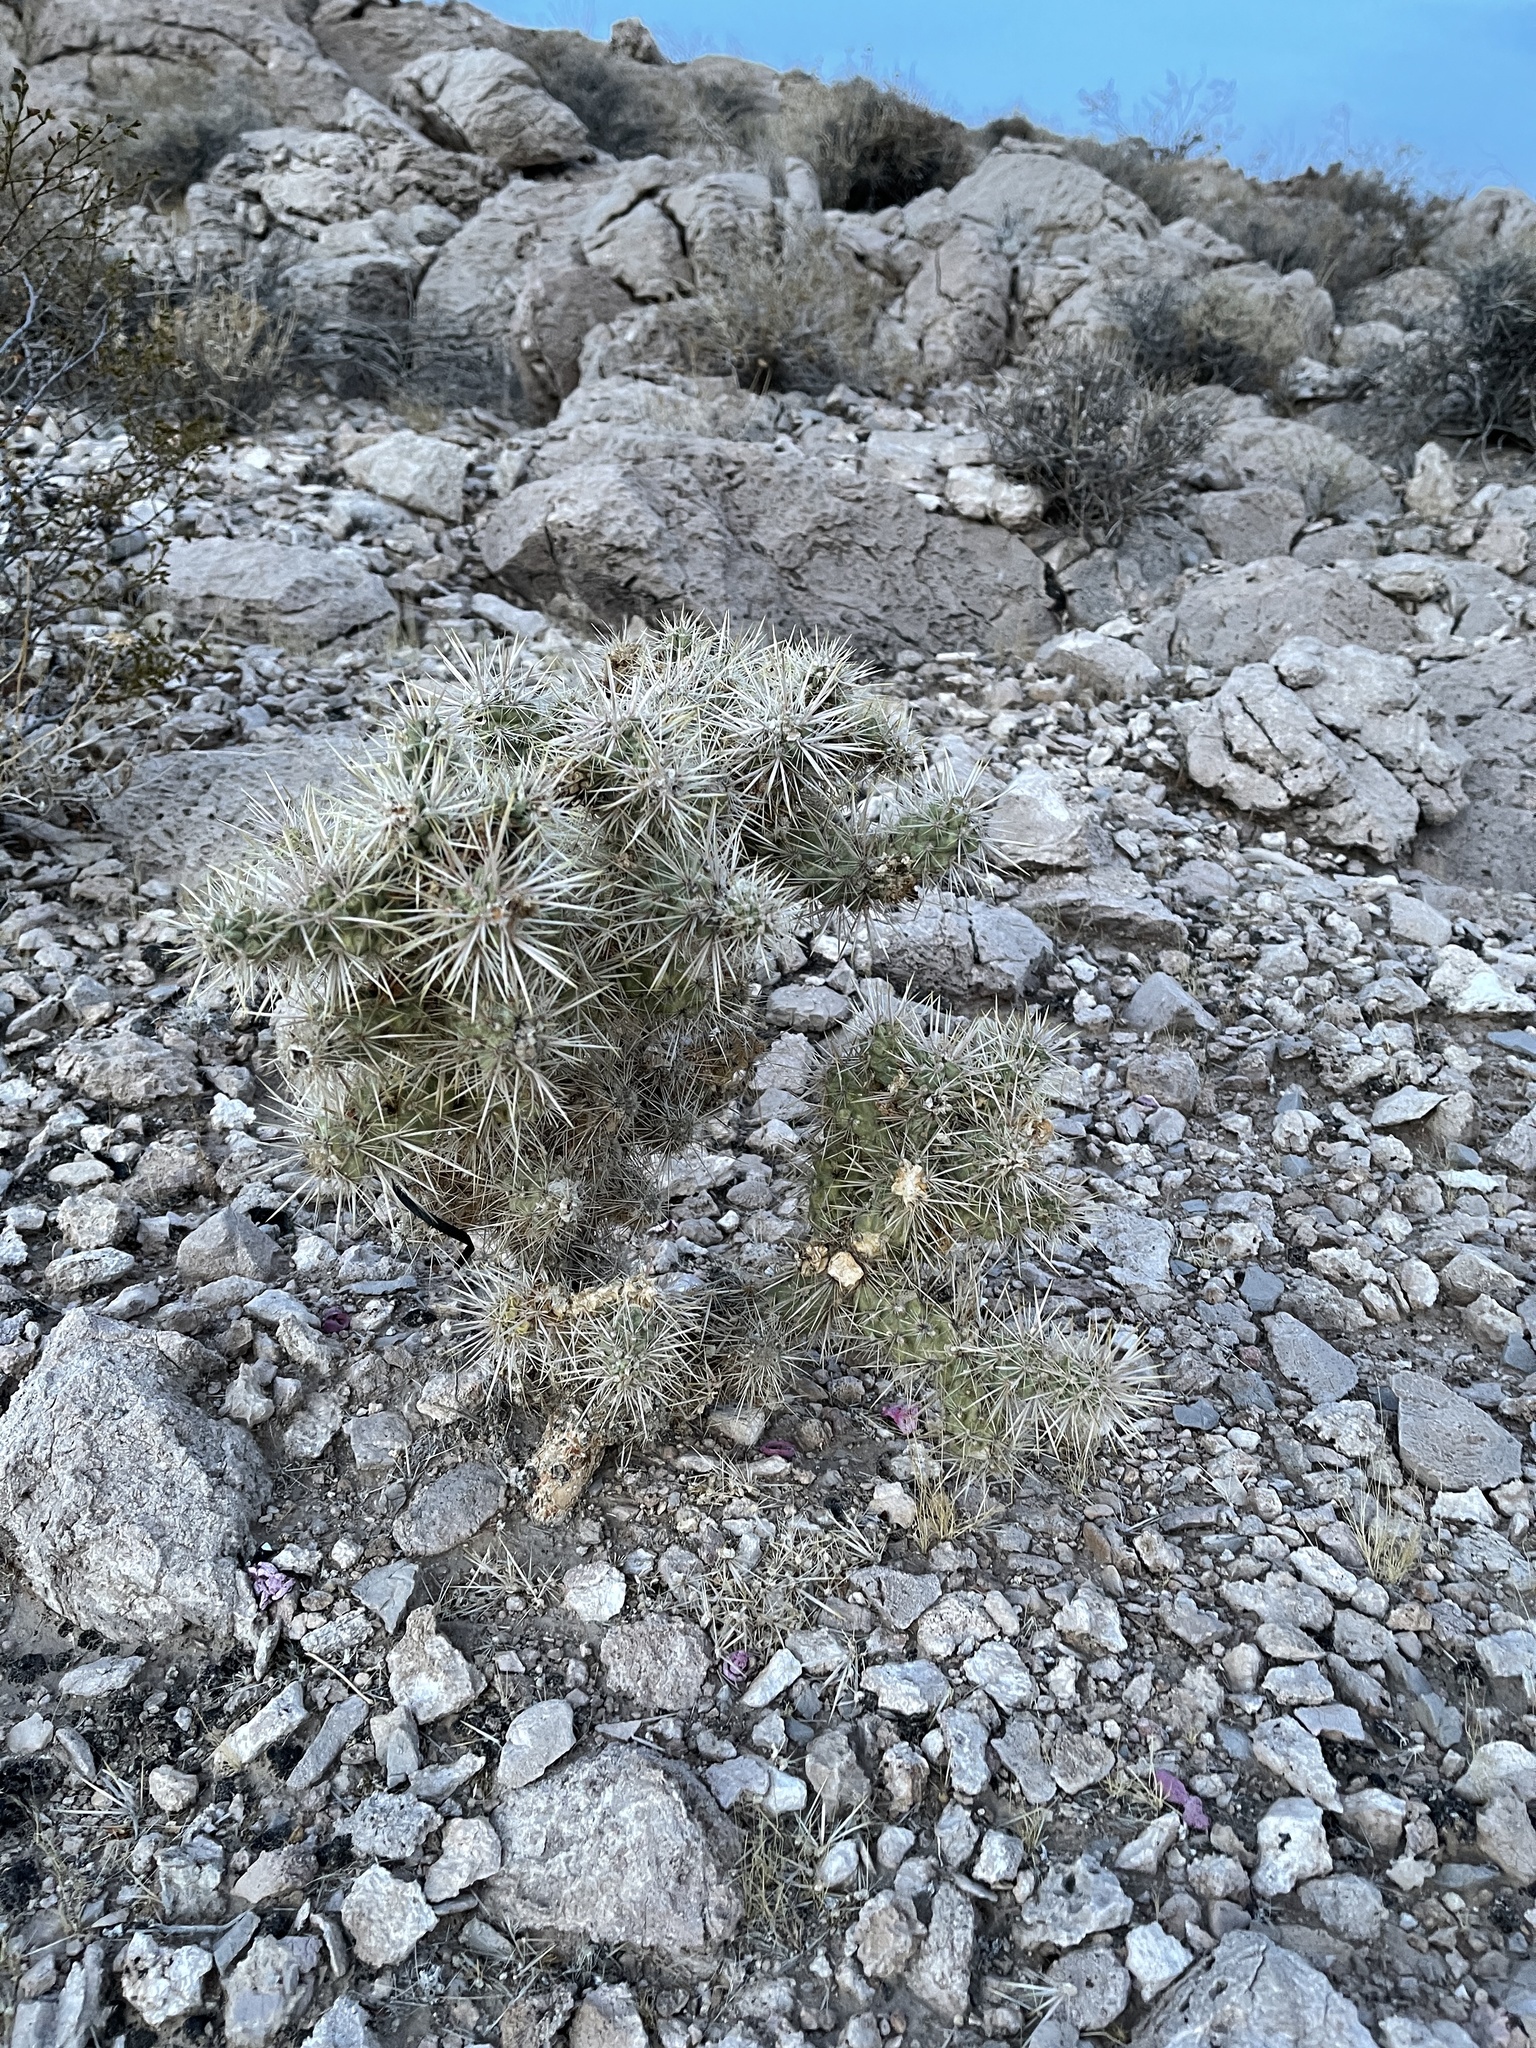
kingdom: Plantae
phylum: Tracheophyta
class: Magnoliopsida
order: Caryophyllales
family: Cactaceae
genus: Cylindropuntia
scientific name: Cylindropuntia echinocarpa
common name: Ground cholla
